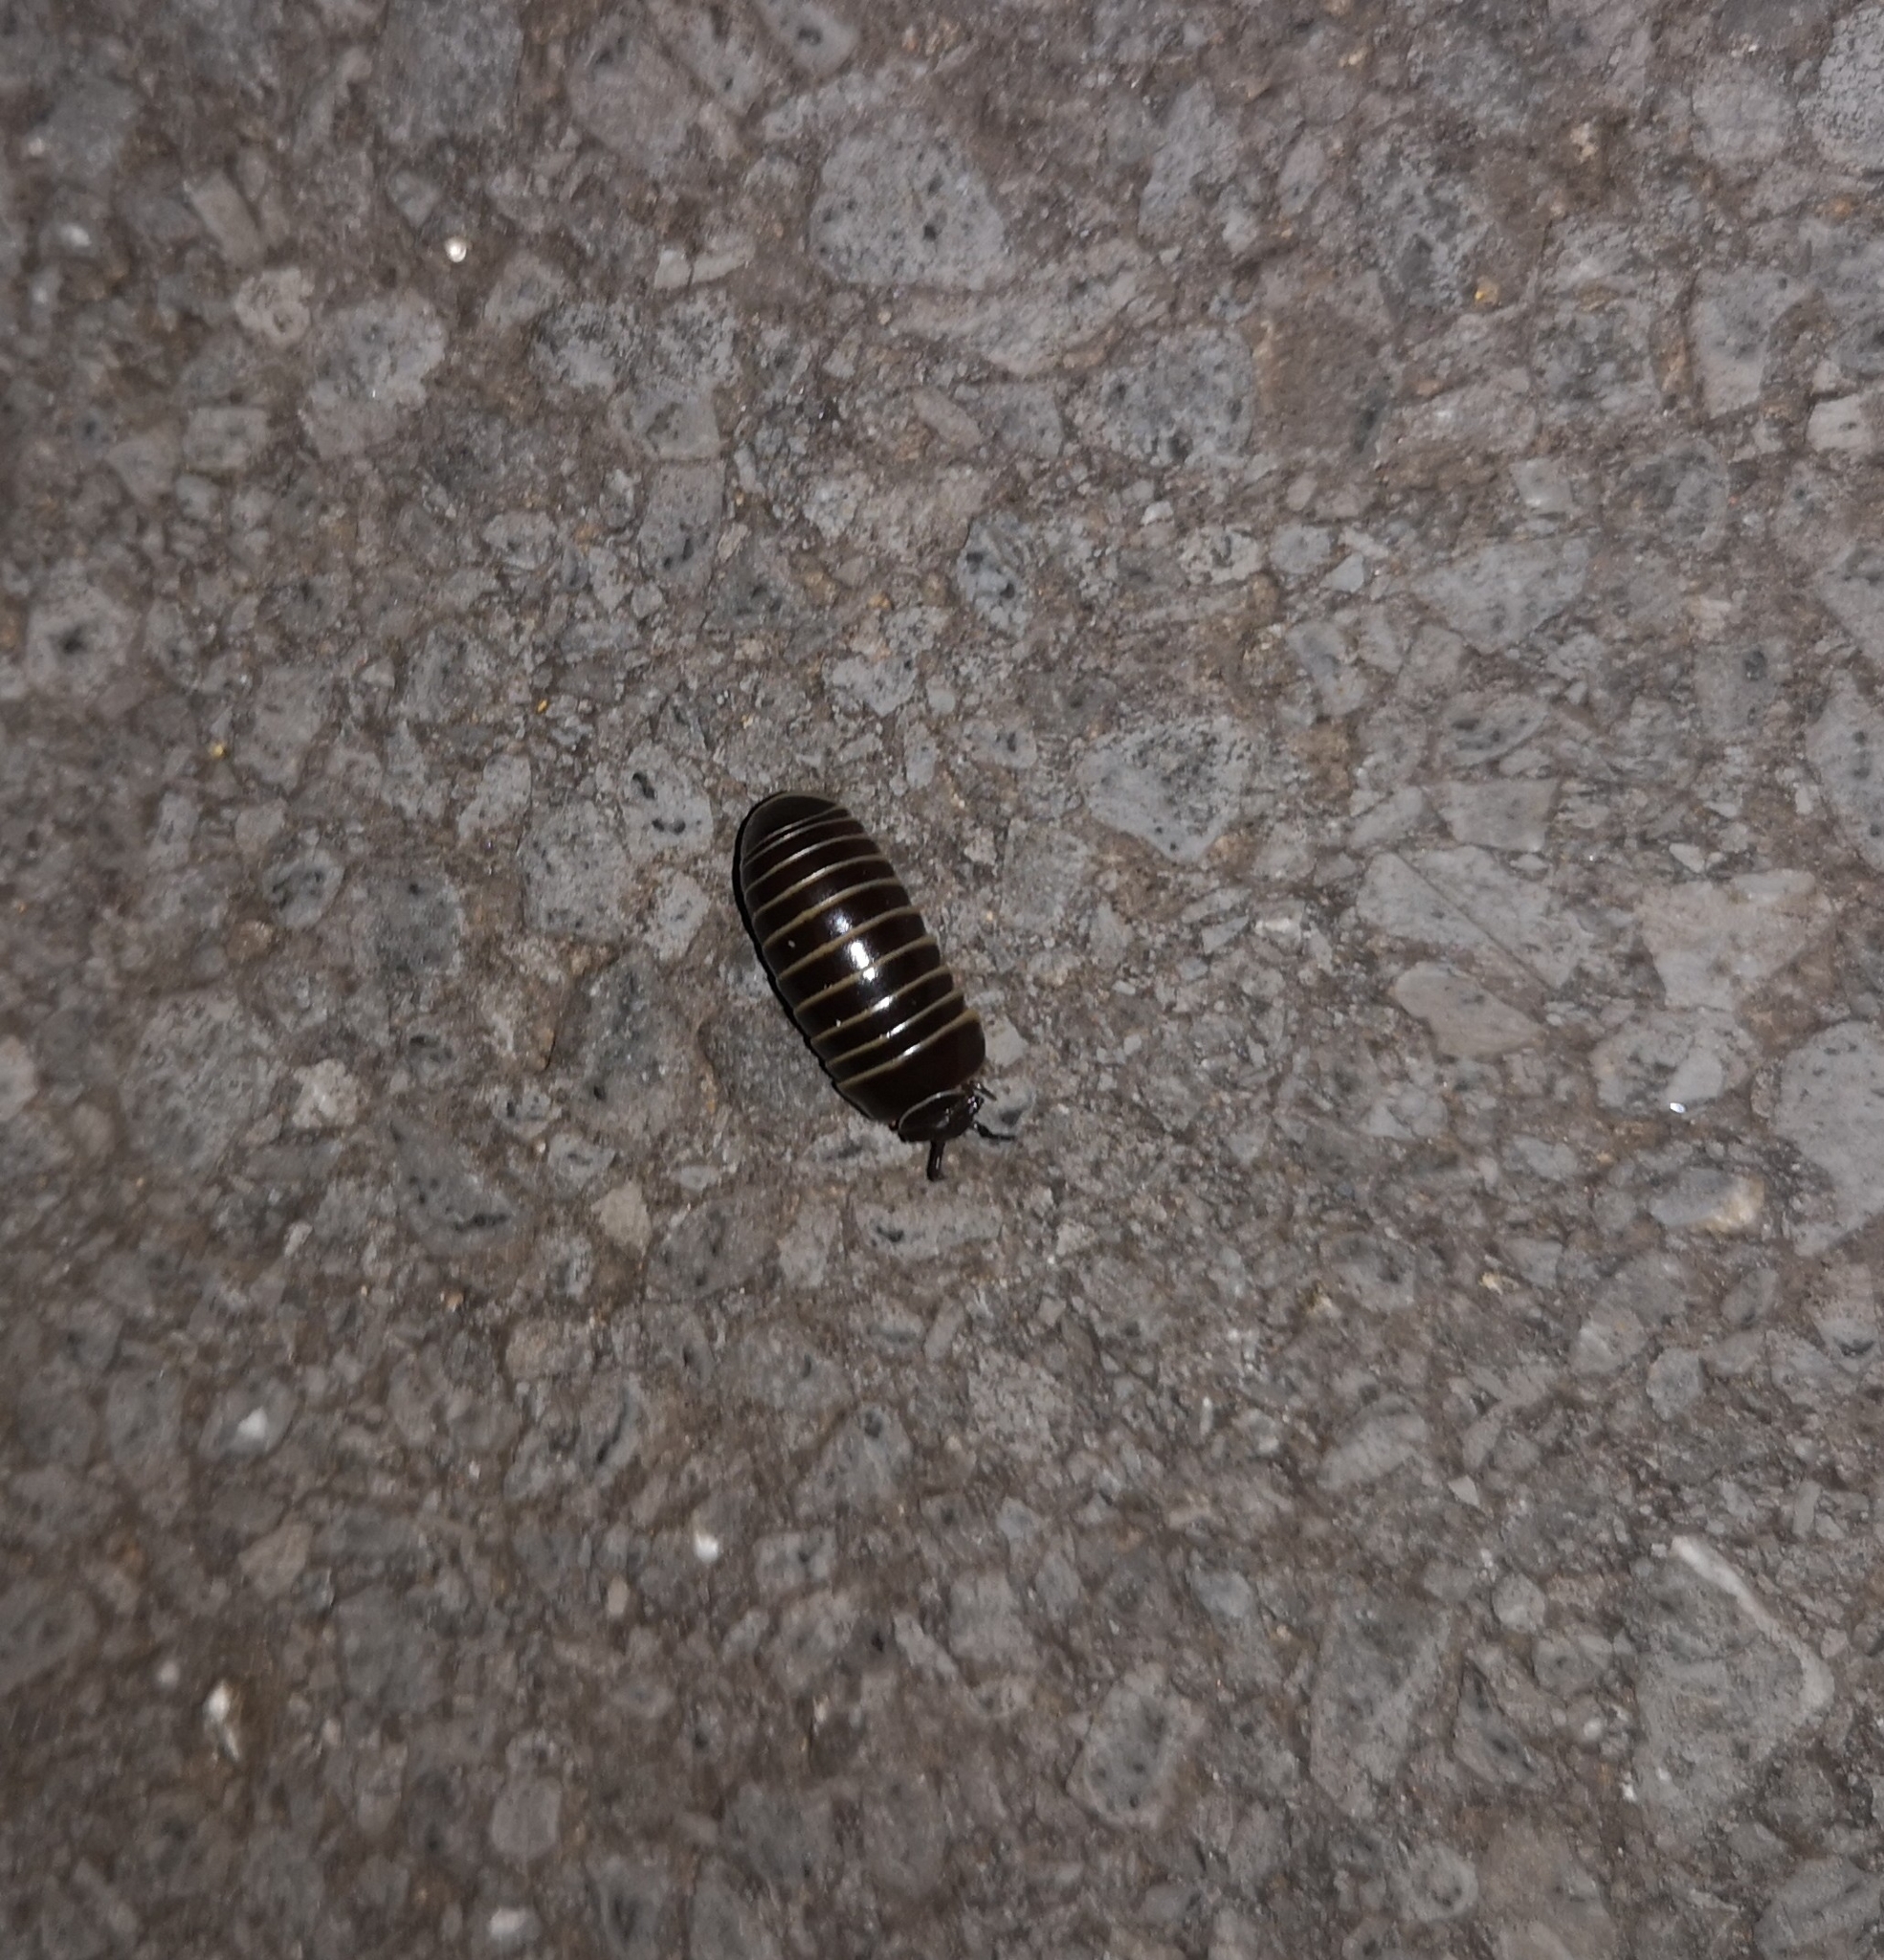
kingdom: Animalia
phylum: Arthropoda
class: Diplopoda
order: Glomerida
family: Glomeridae
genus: Glomeris
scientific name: Glomeris marginata
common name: Bordered pill millipede
